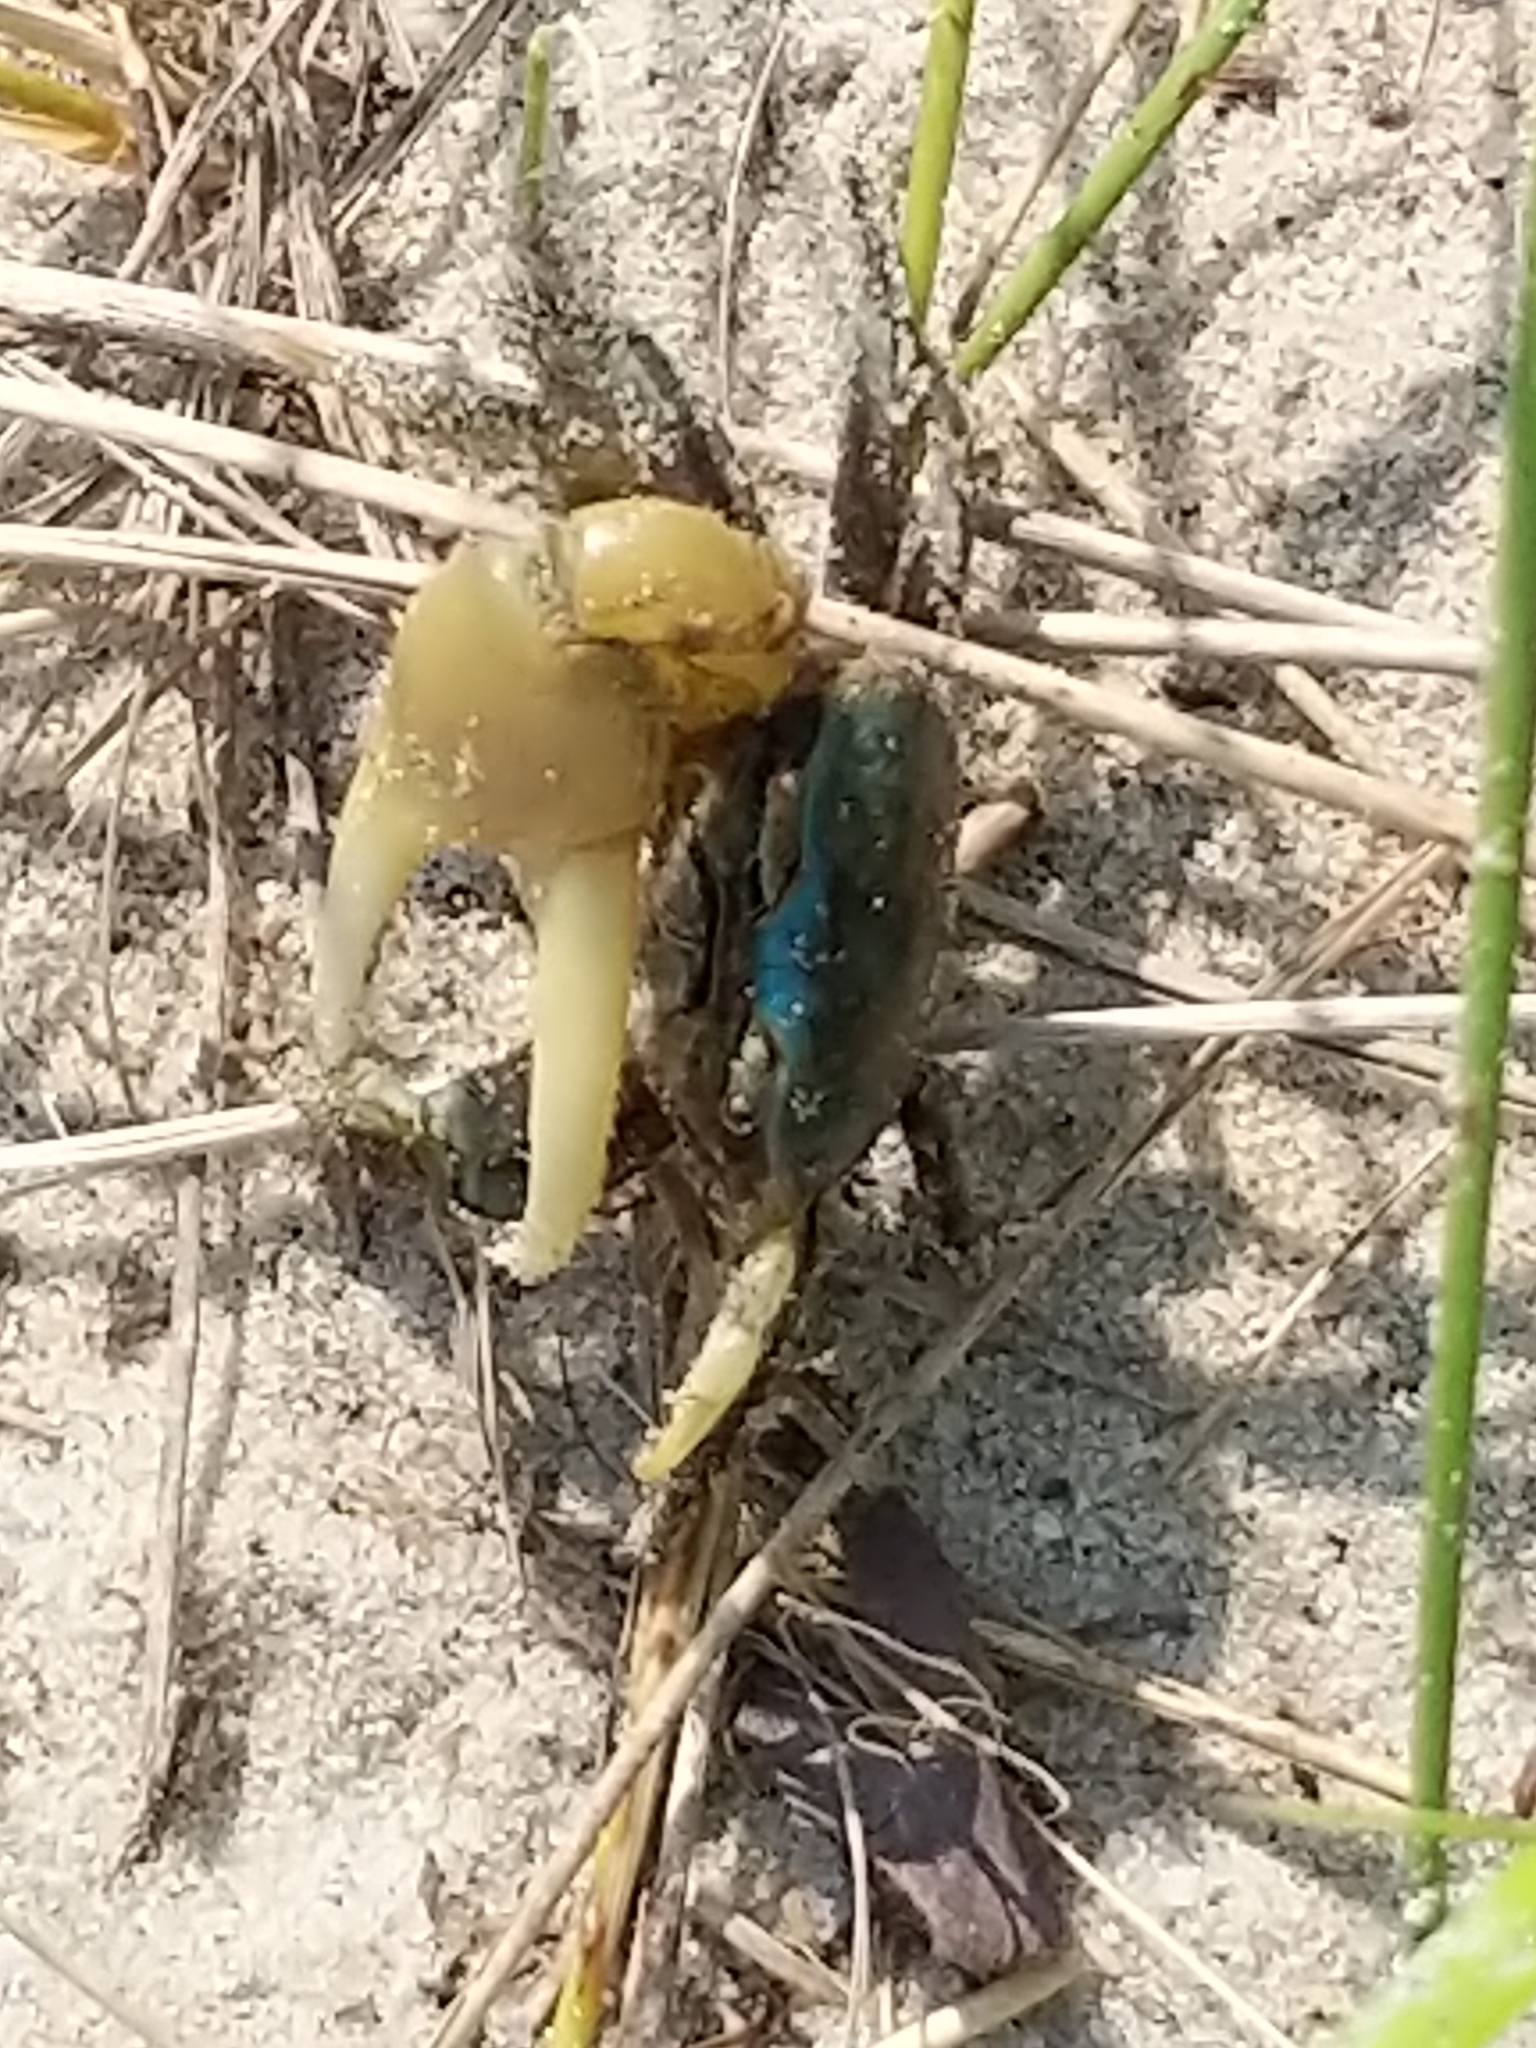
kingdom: Animalia
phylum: Arthropoda
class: Malacostraca
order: Decapoda
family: Ocypodidae
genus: Minuca
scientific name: Minuca pugnax
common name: Mud fiddler crab
